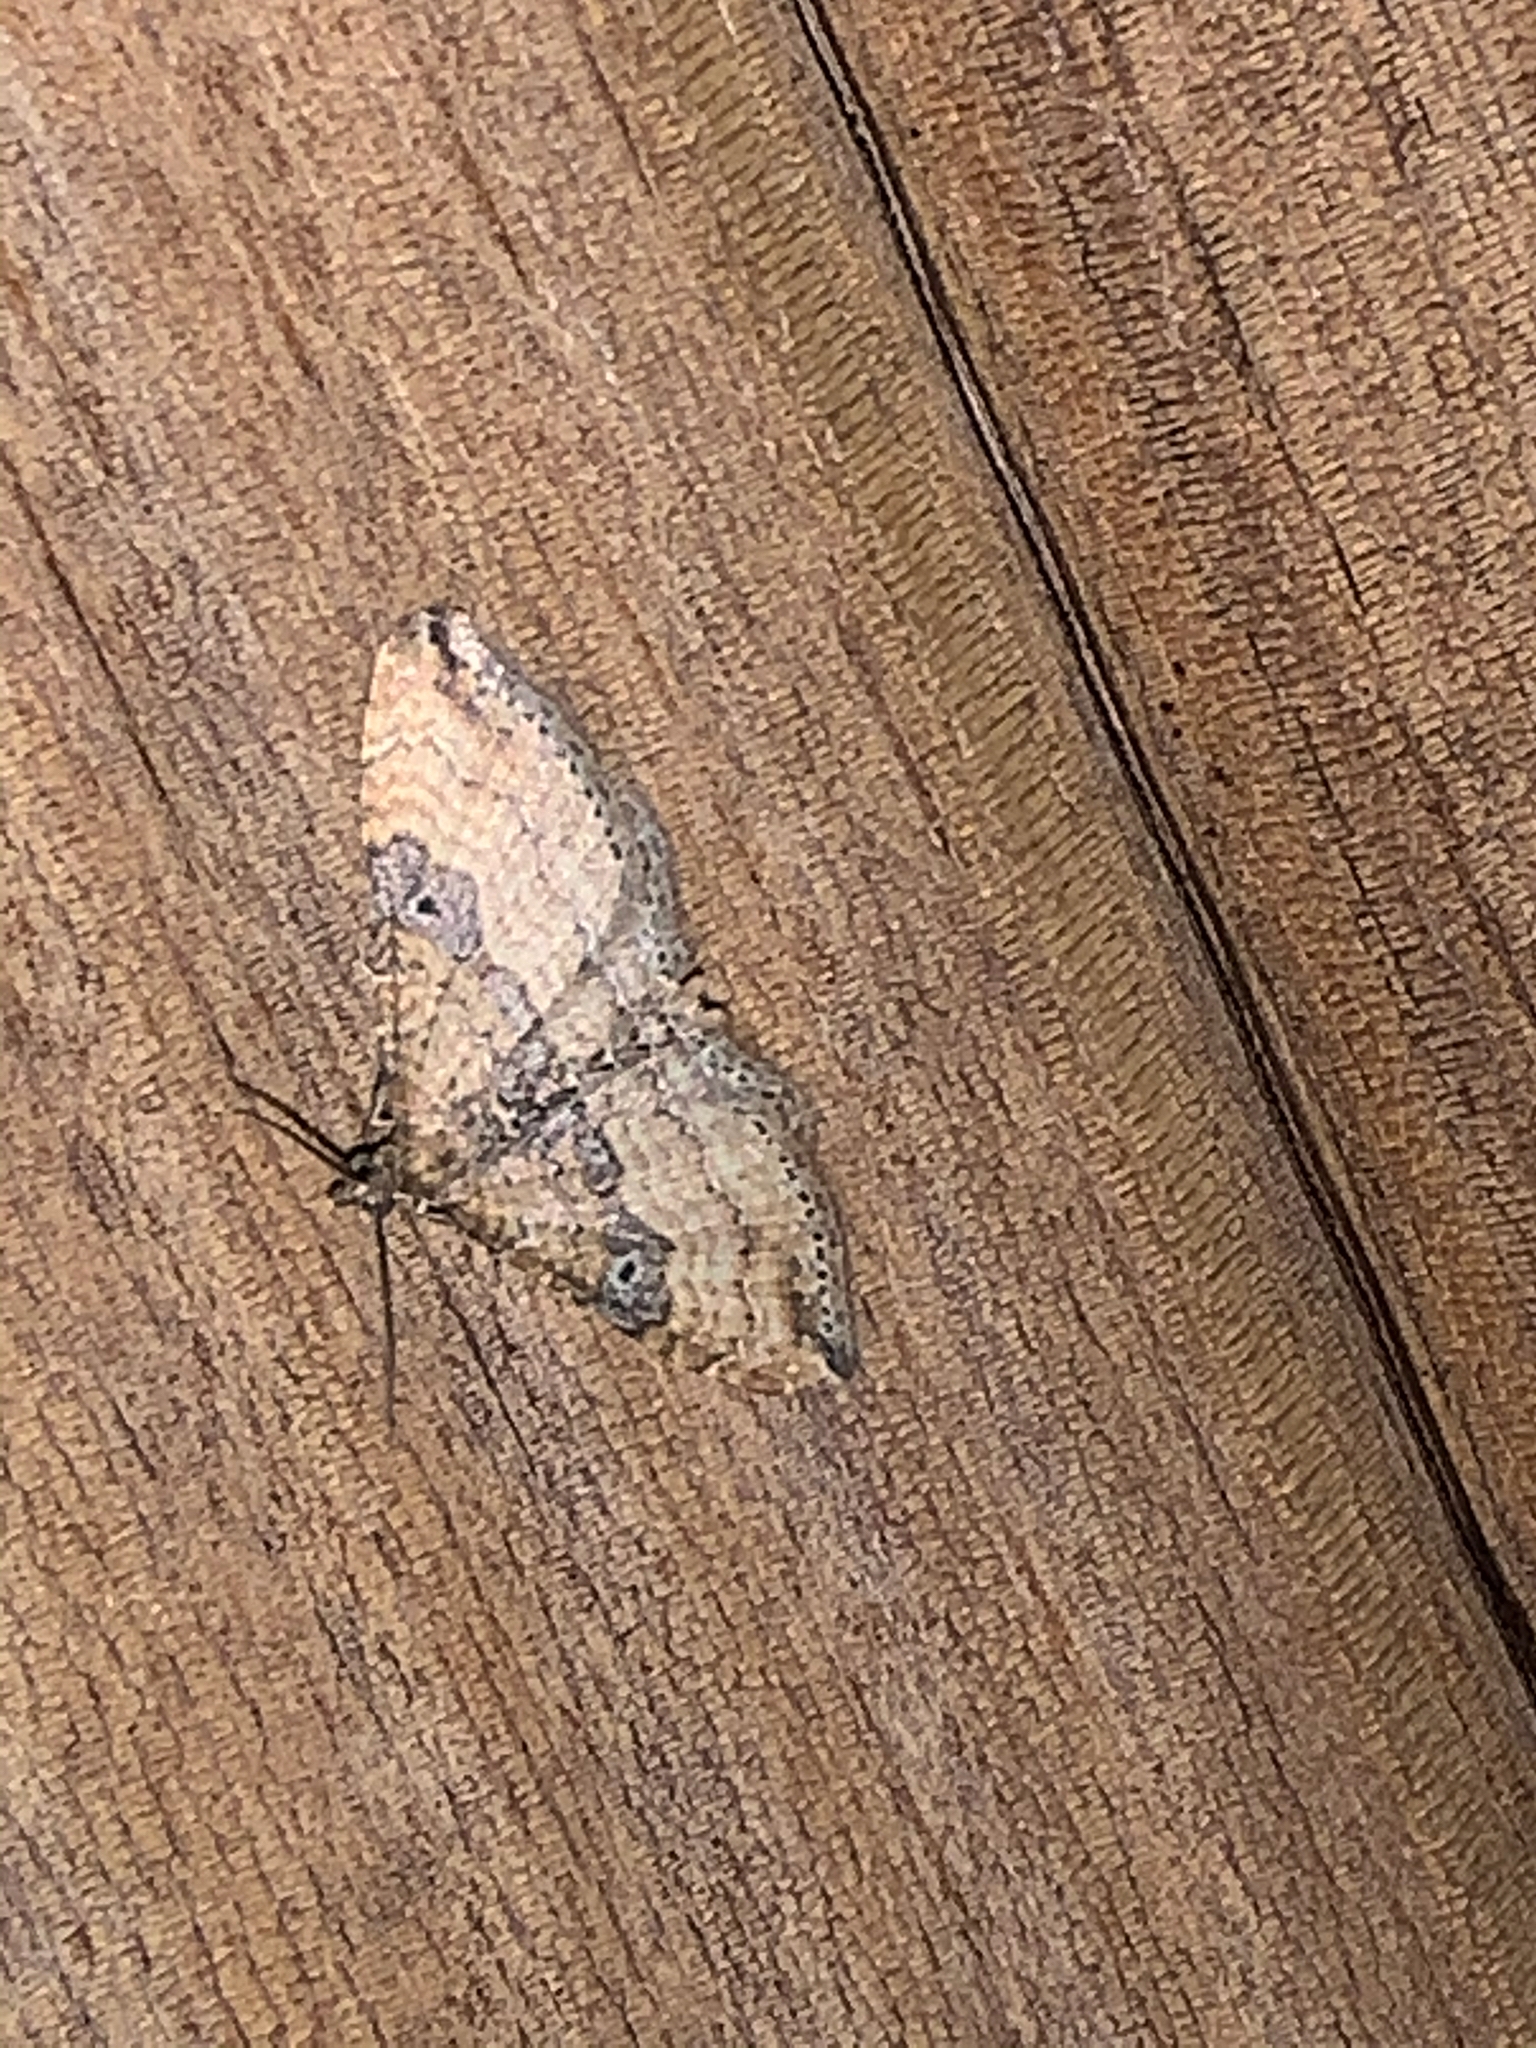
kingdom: Animalia
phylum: Arthropoda
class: Insecta
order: Lepidoptera
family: Geometridae
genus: Orthonama
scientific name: Orthonama obstipata
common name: The gem
